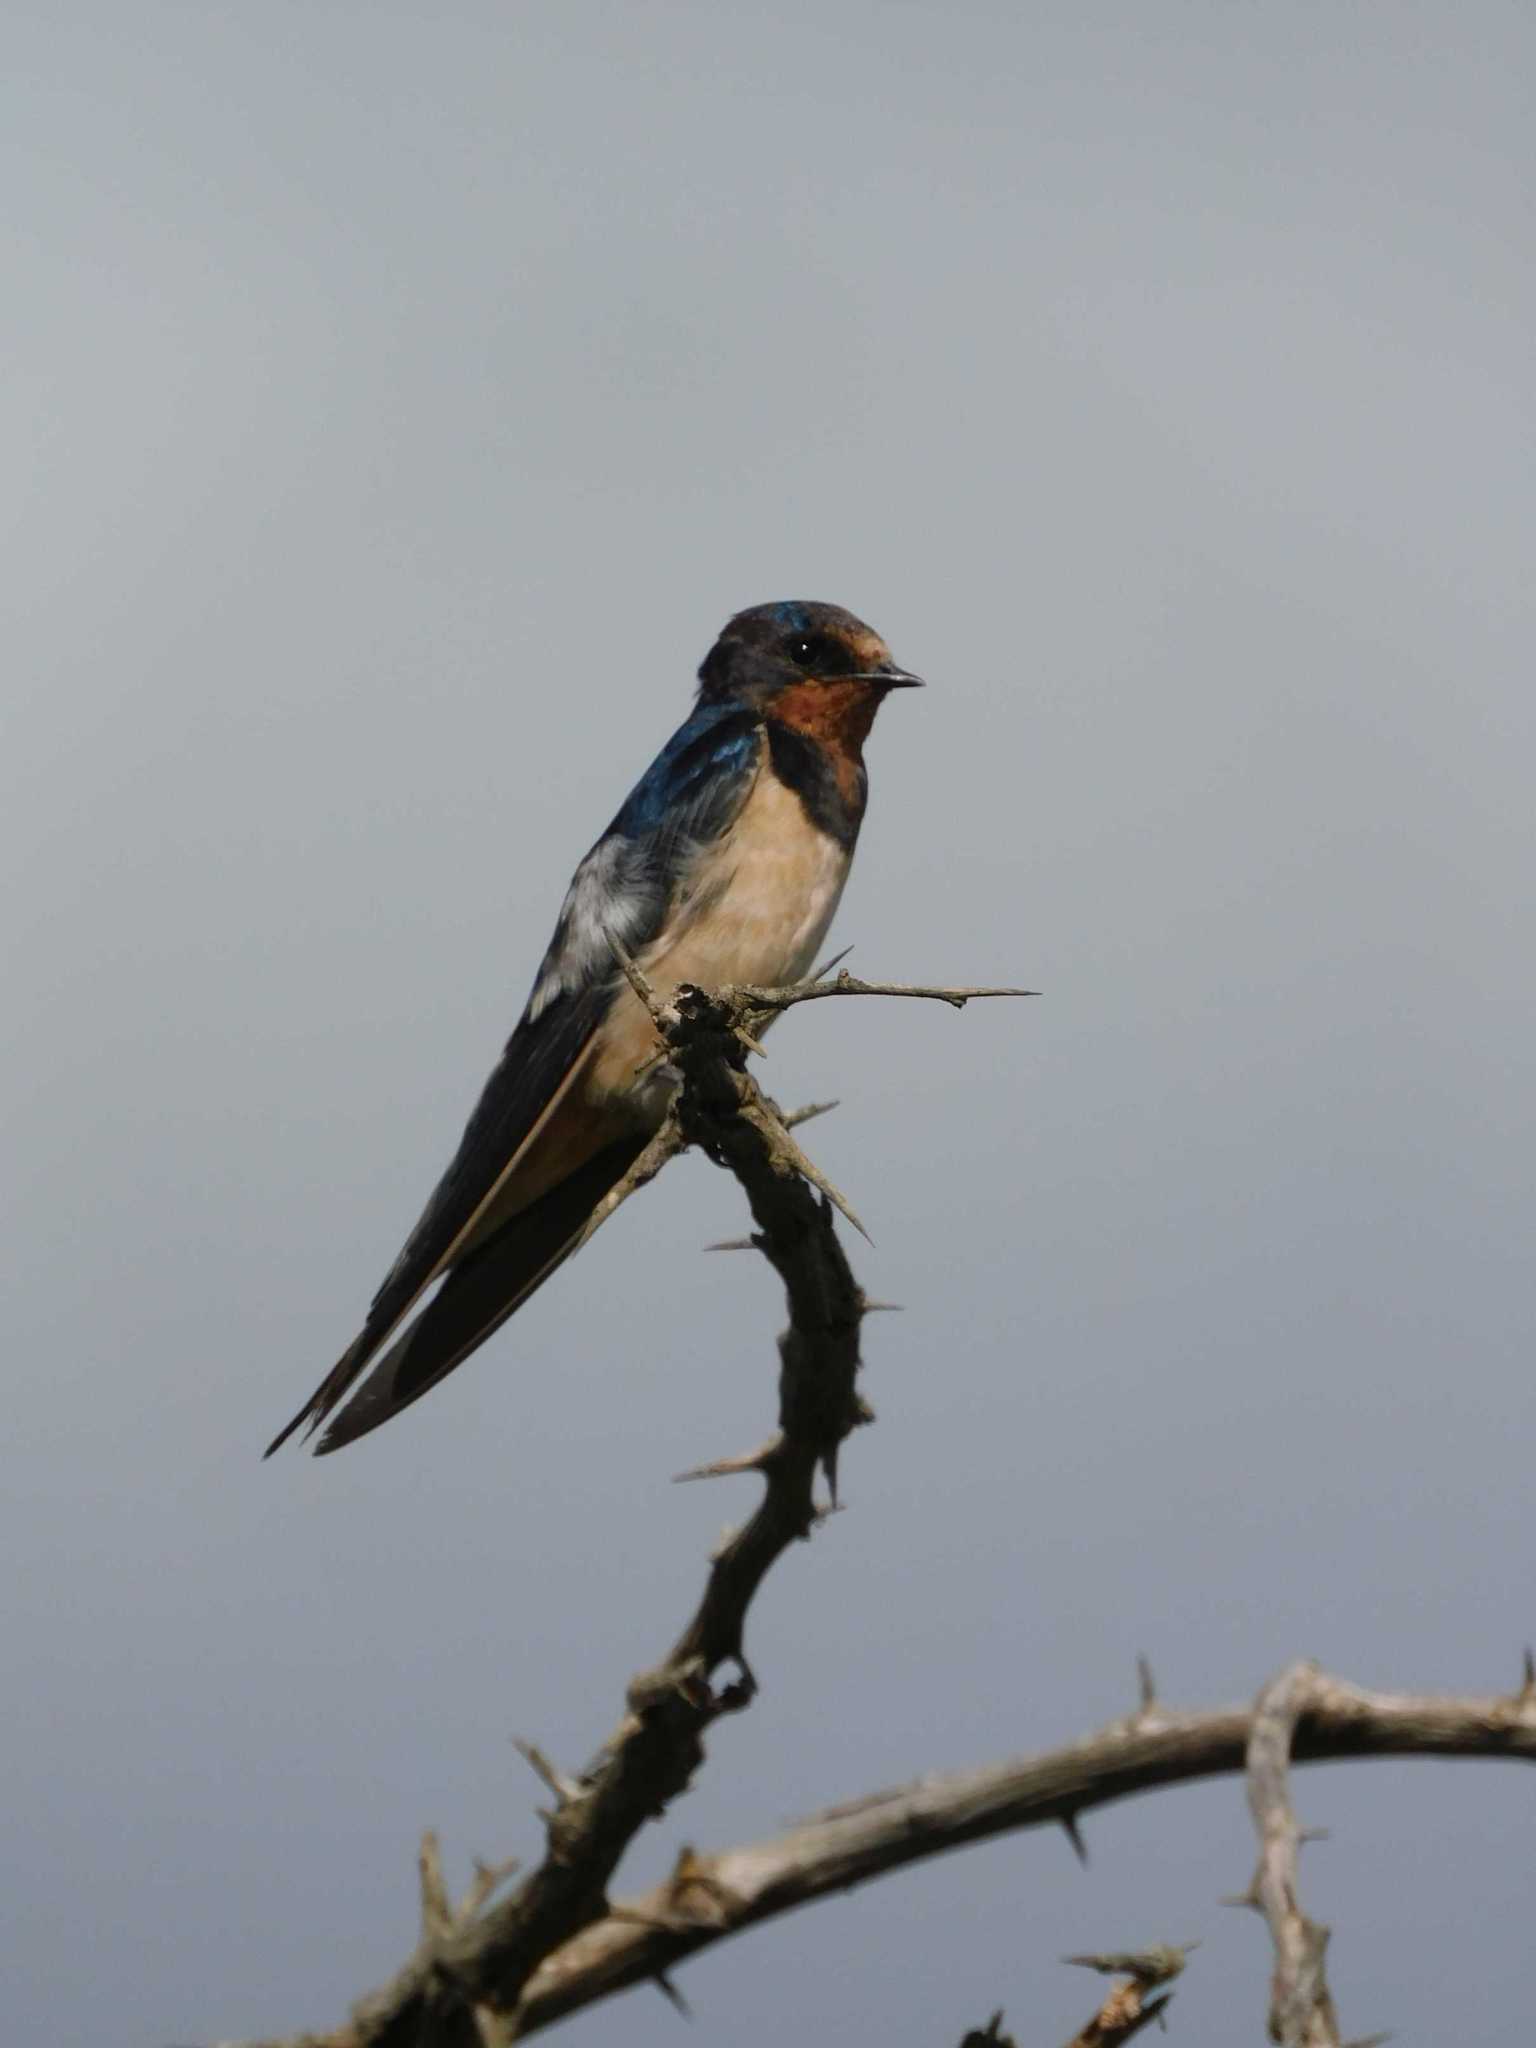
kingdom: Animalia
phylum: Chordata
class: Aves
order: Passeriformes
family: Hirundinidae
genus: Hirundo
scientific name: Hirundo rustica
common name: Barn swallow
